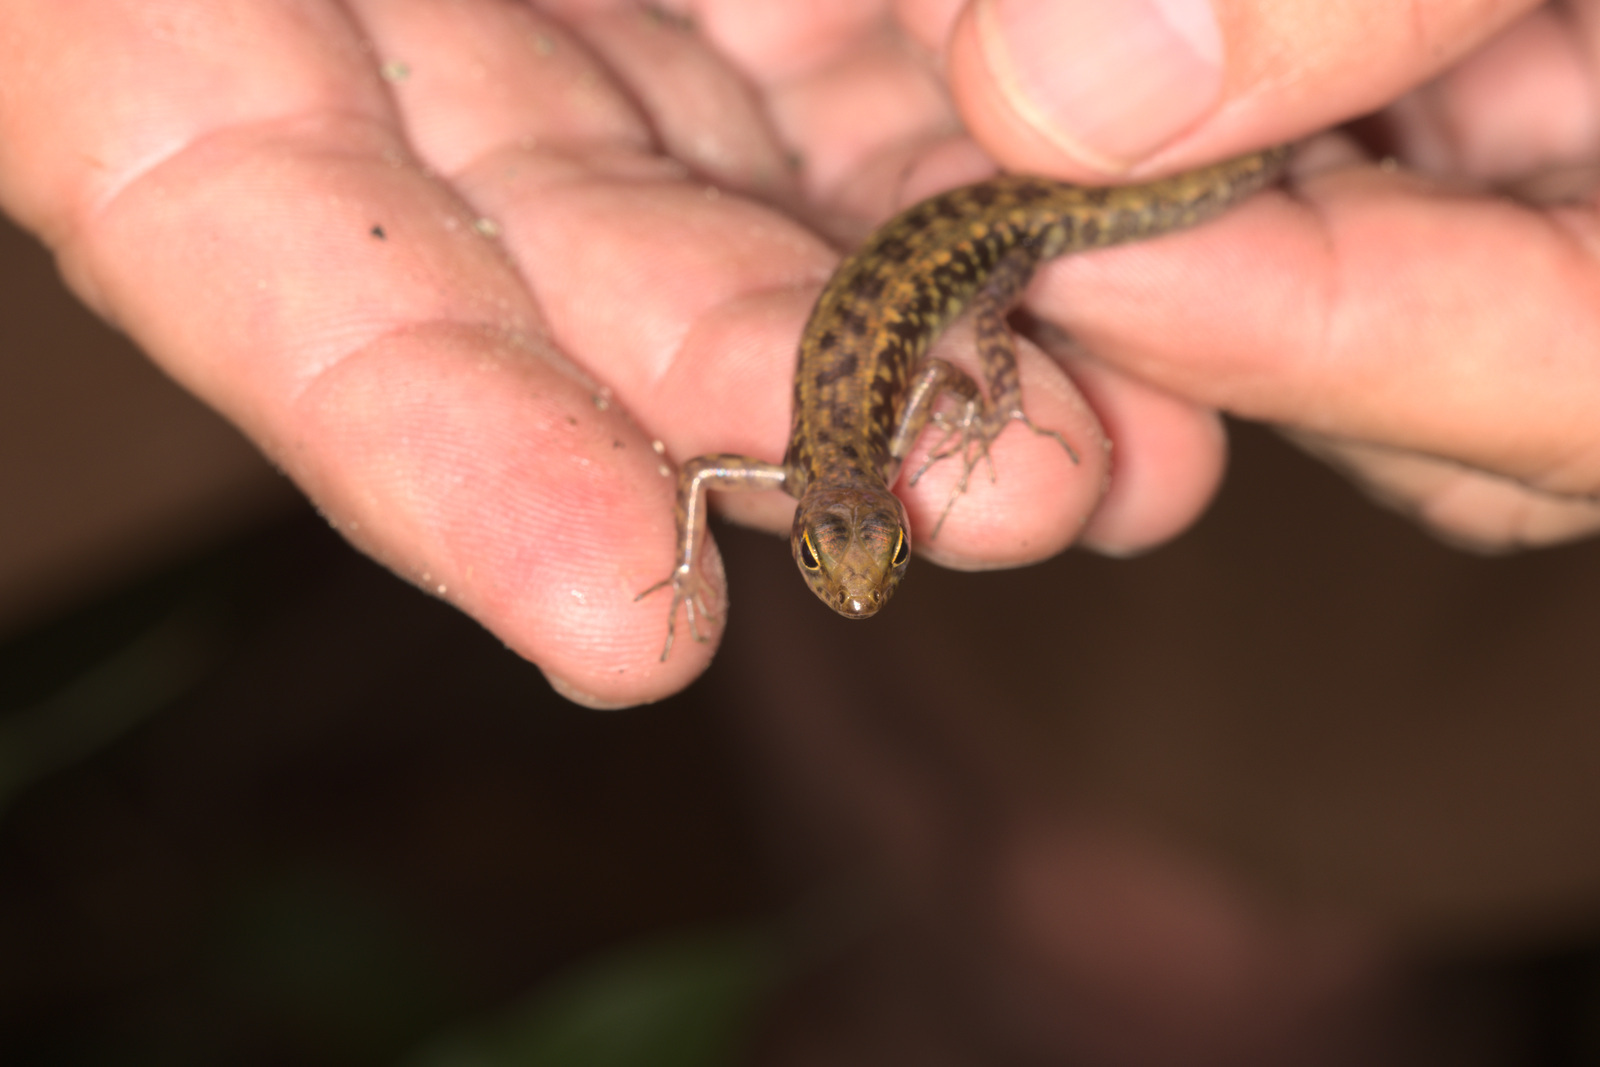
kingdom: Animalia
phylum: Chordata
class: Squamata
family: Scincidae
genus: Sphenomorphus
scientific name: Sphenomorphus scotophilus
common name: Selangor forest skink
